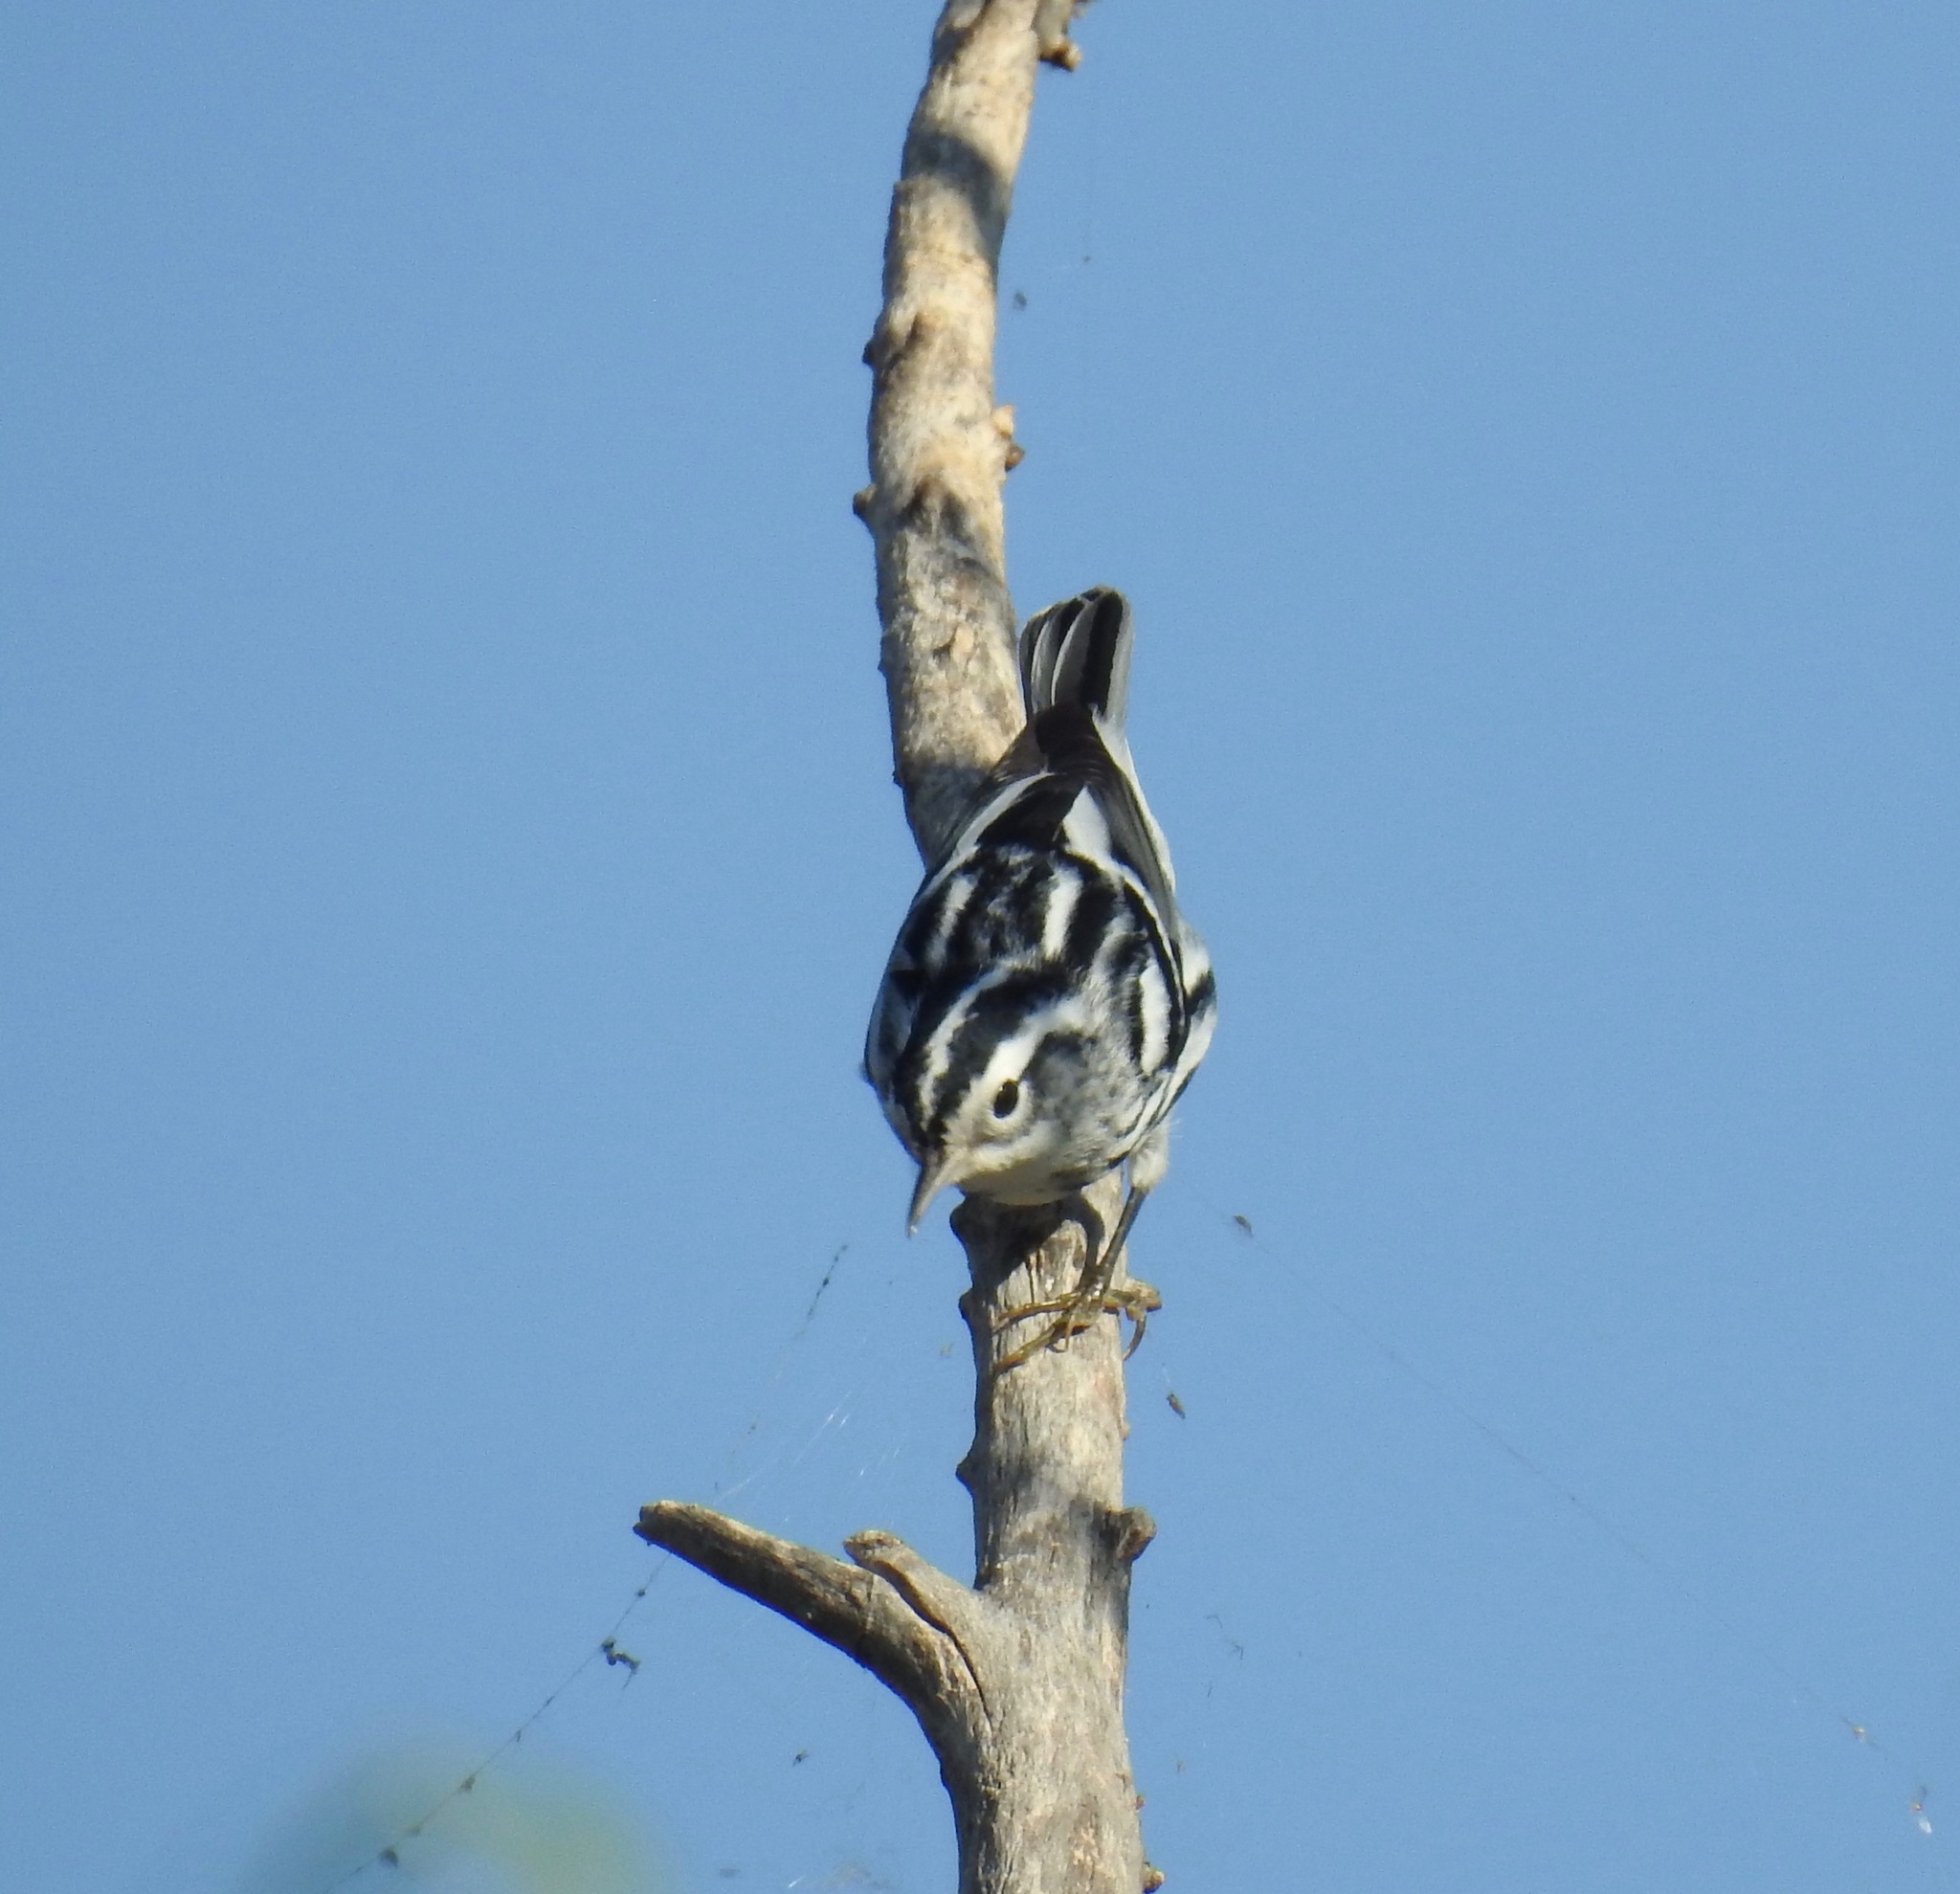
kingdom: Animalia
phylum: Chordata
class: Aves
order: Passeriformes
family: Parulidae
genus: Mniotilta
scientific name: Mniotilta varia
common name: Black-and-white warbler
